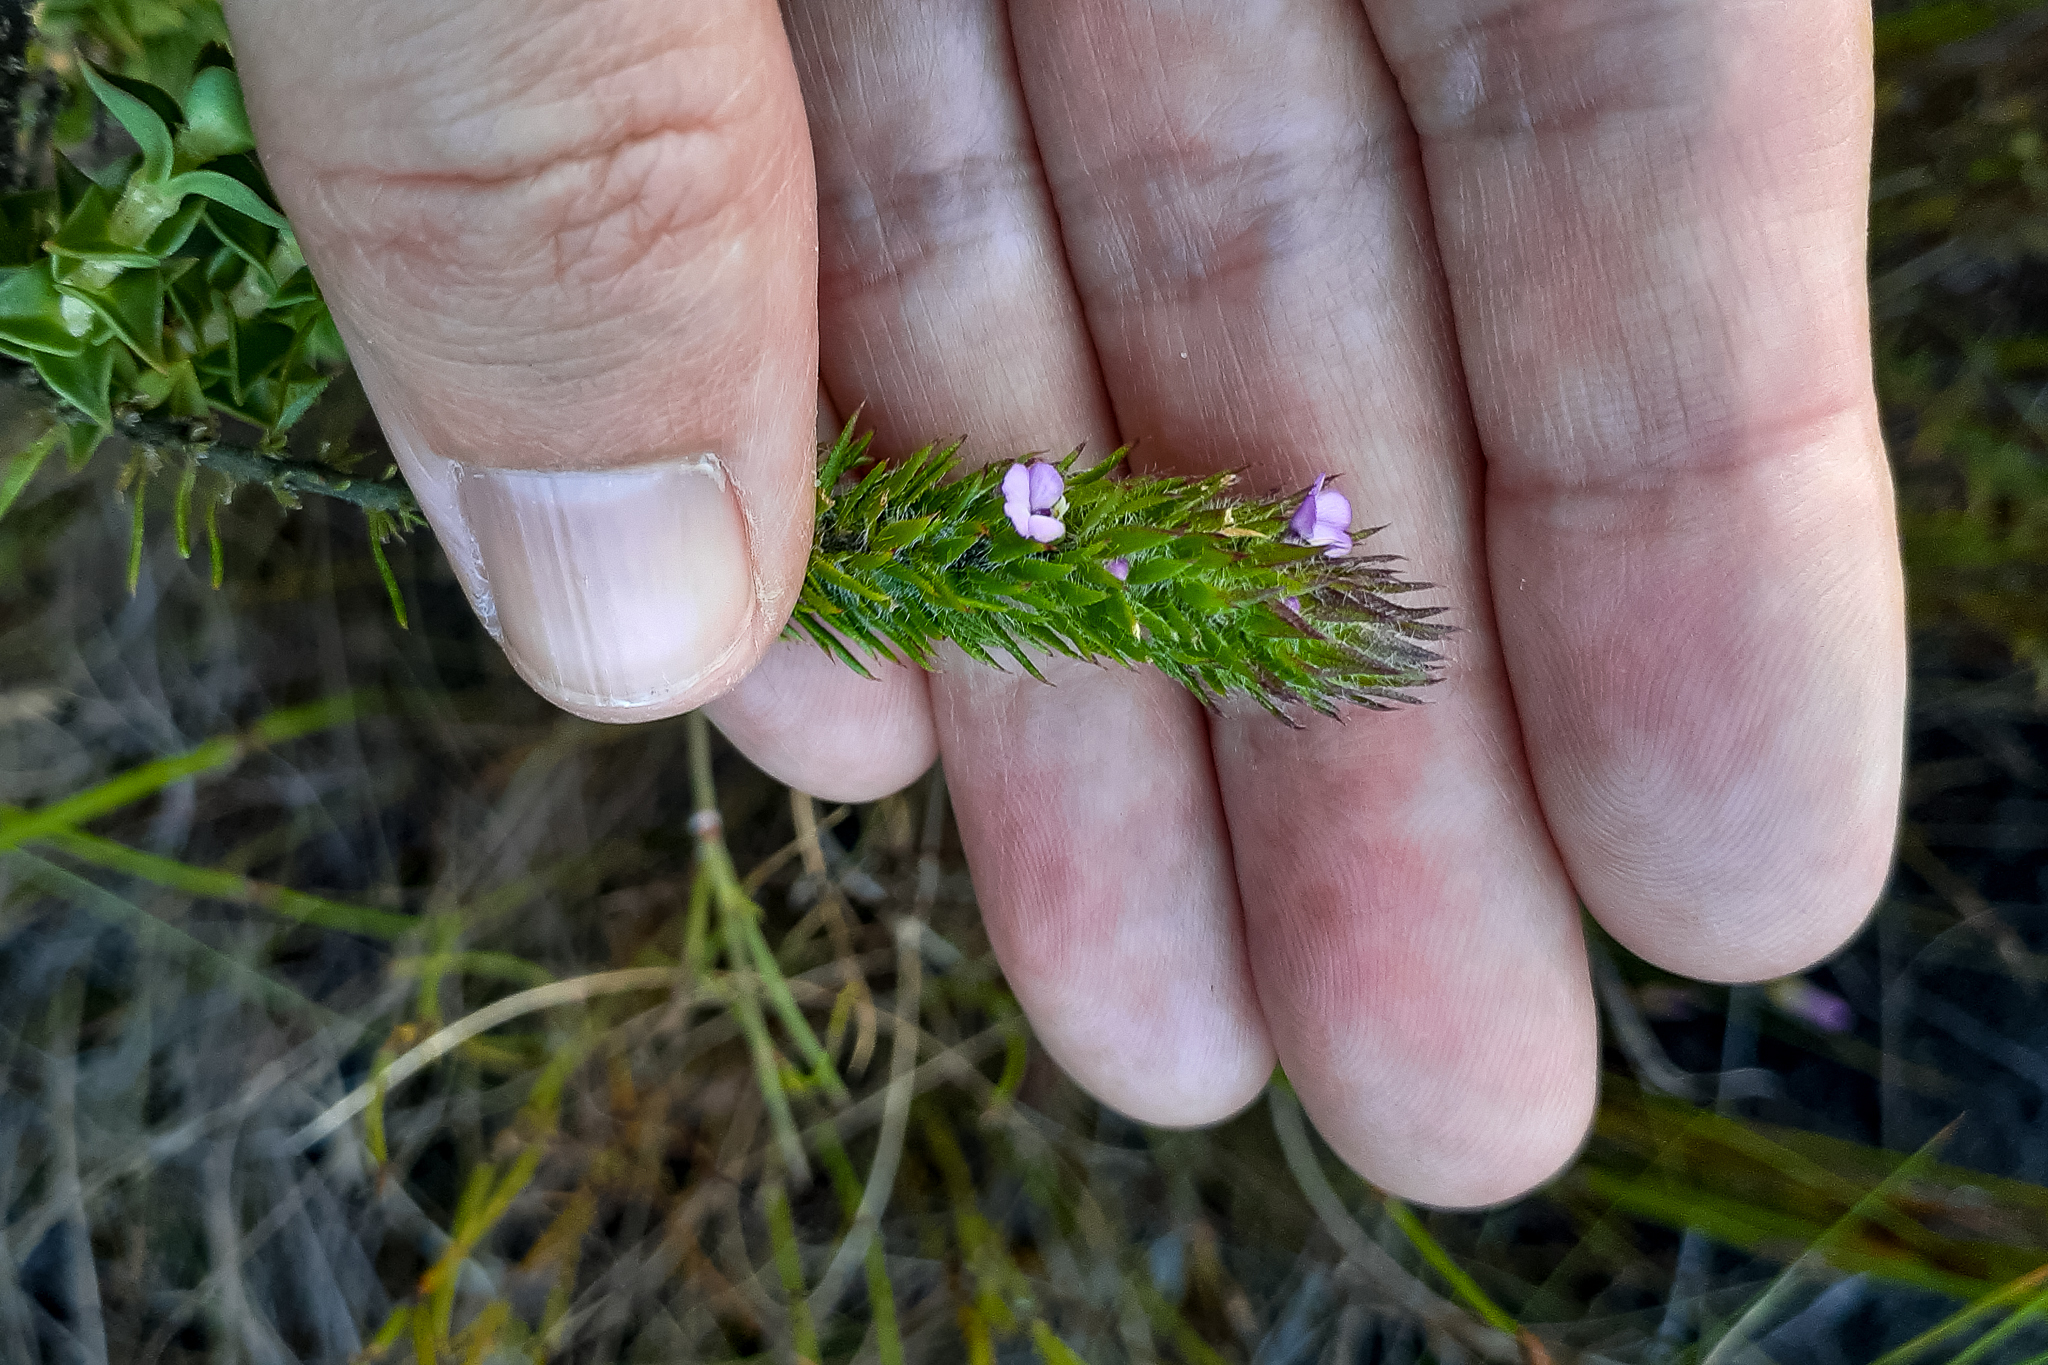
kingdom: Plantae
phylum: Tracheophyta
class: Magnoliopsida
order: Fabales
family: Polygalaceae
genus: Muraltia
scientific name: Muraltia alopecuroides
